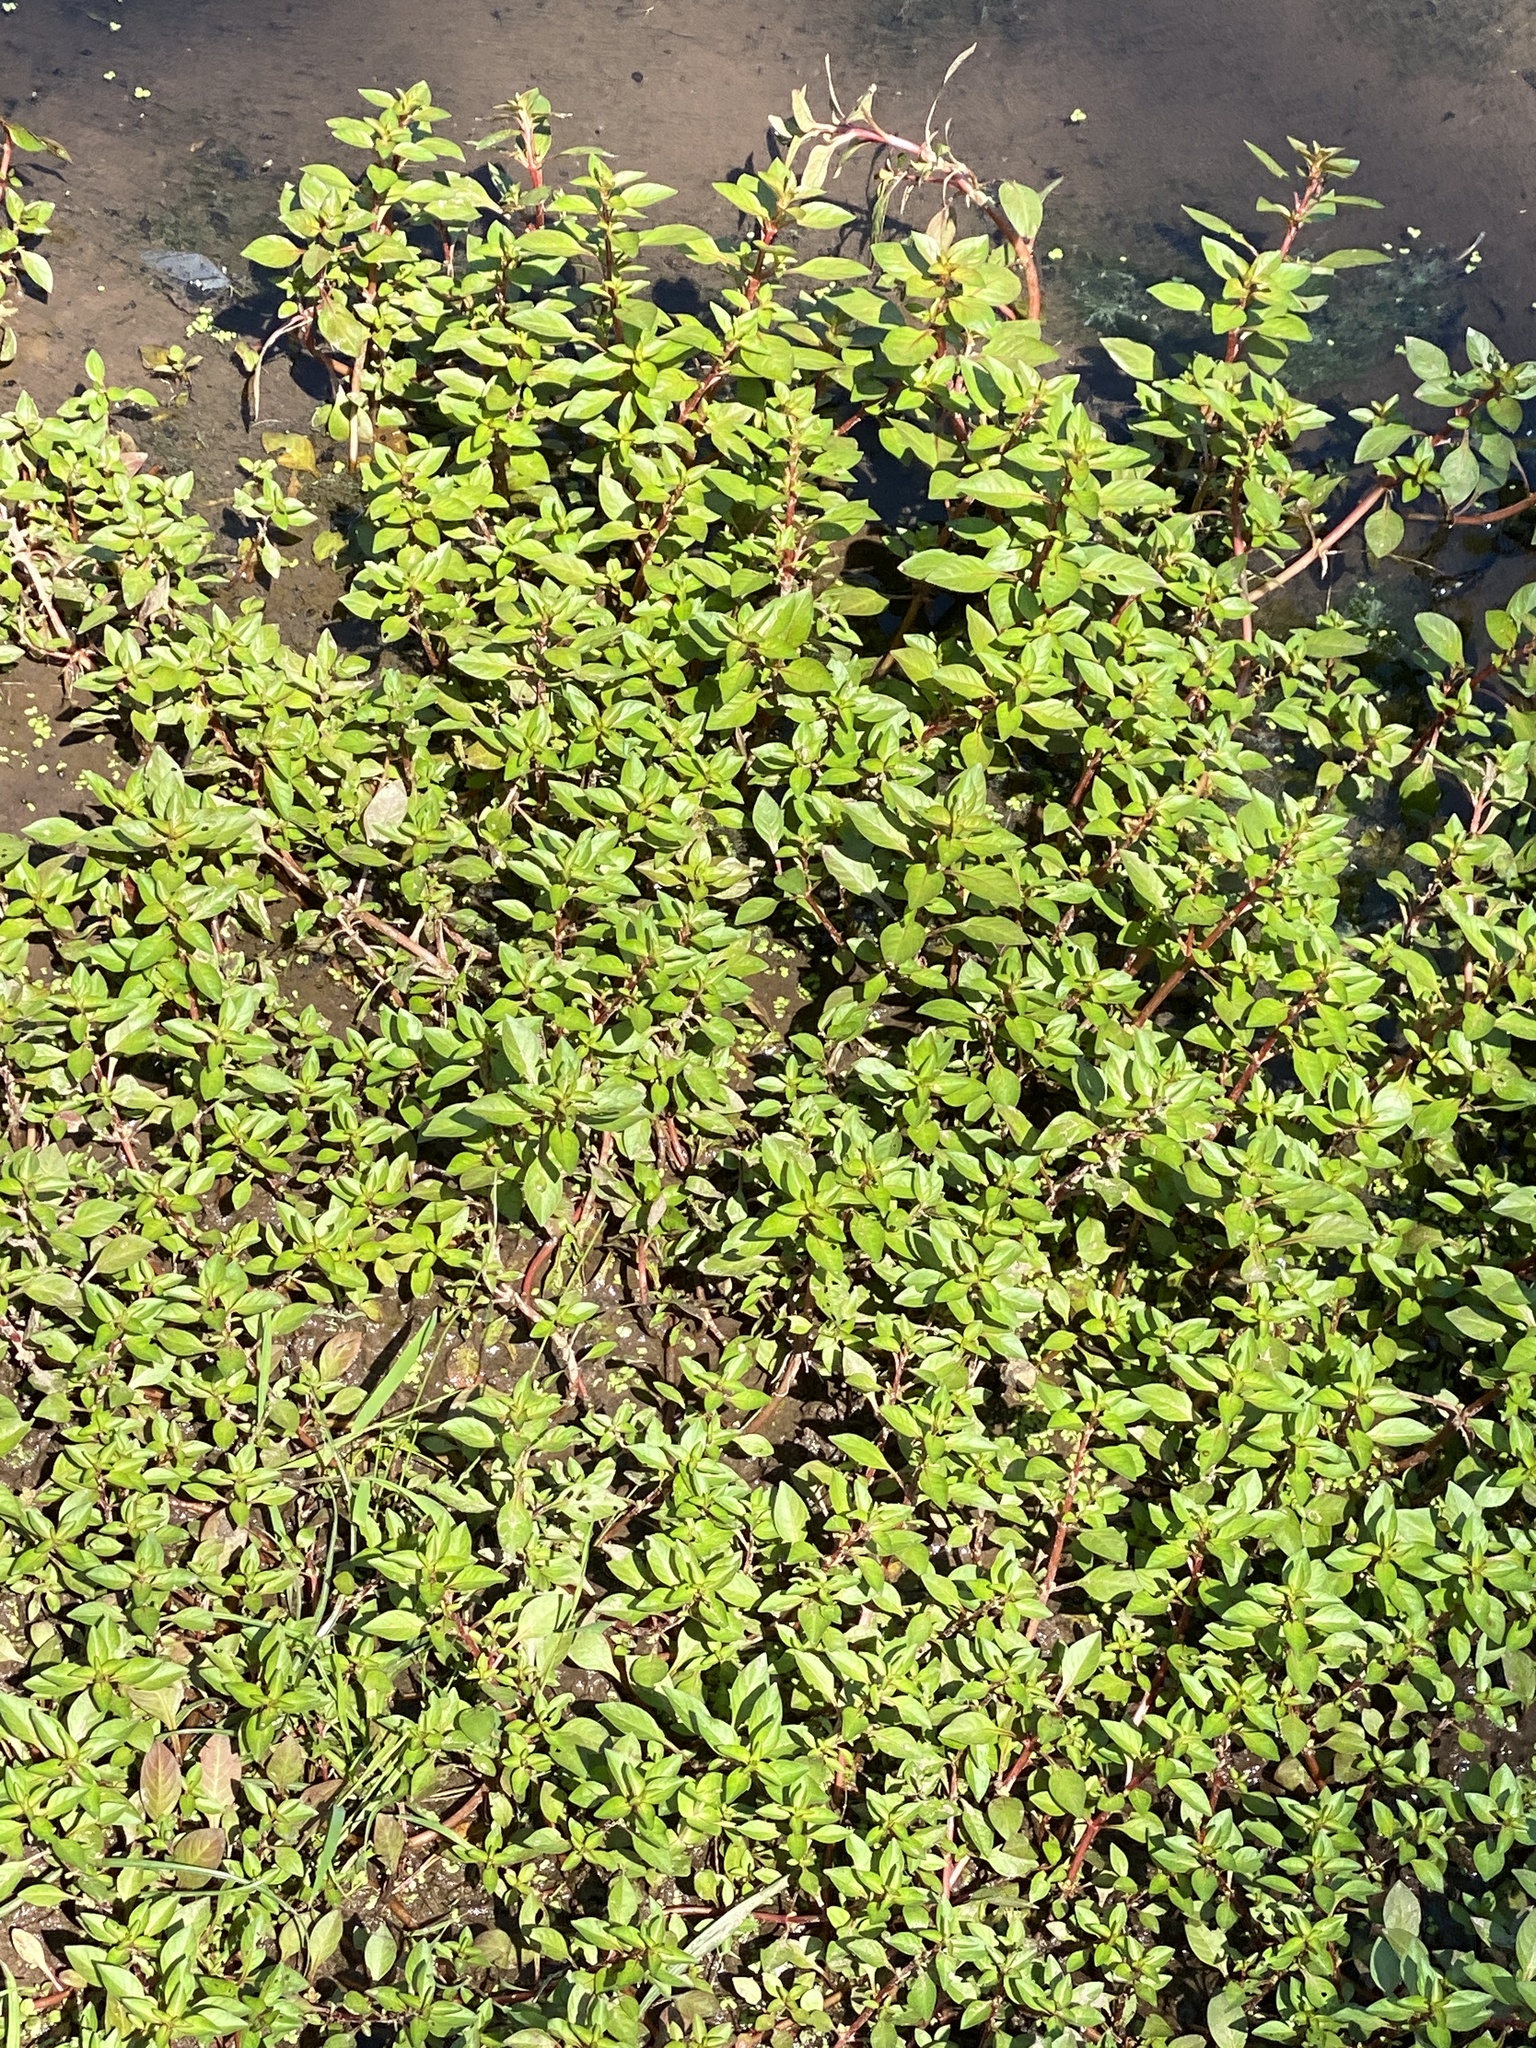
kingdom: Plantae
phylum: Tracheophyta
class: Magnoliopsida
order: Myrtales
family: Onagraceae
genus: Ludwigia
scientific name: Ludwigia palustris
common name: Hampshire-purslane
